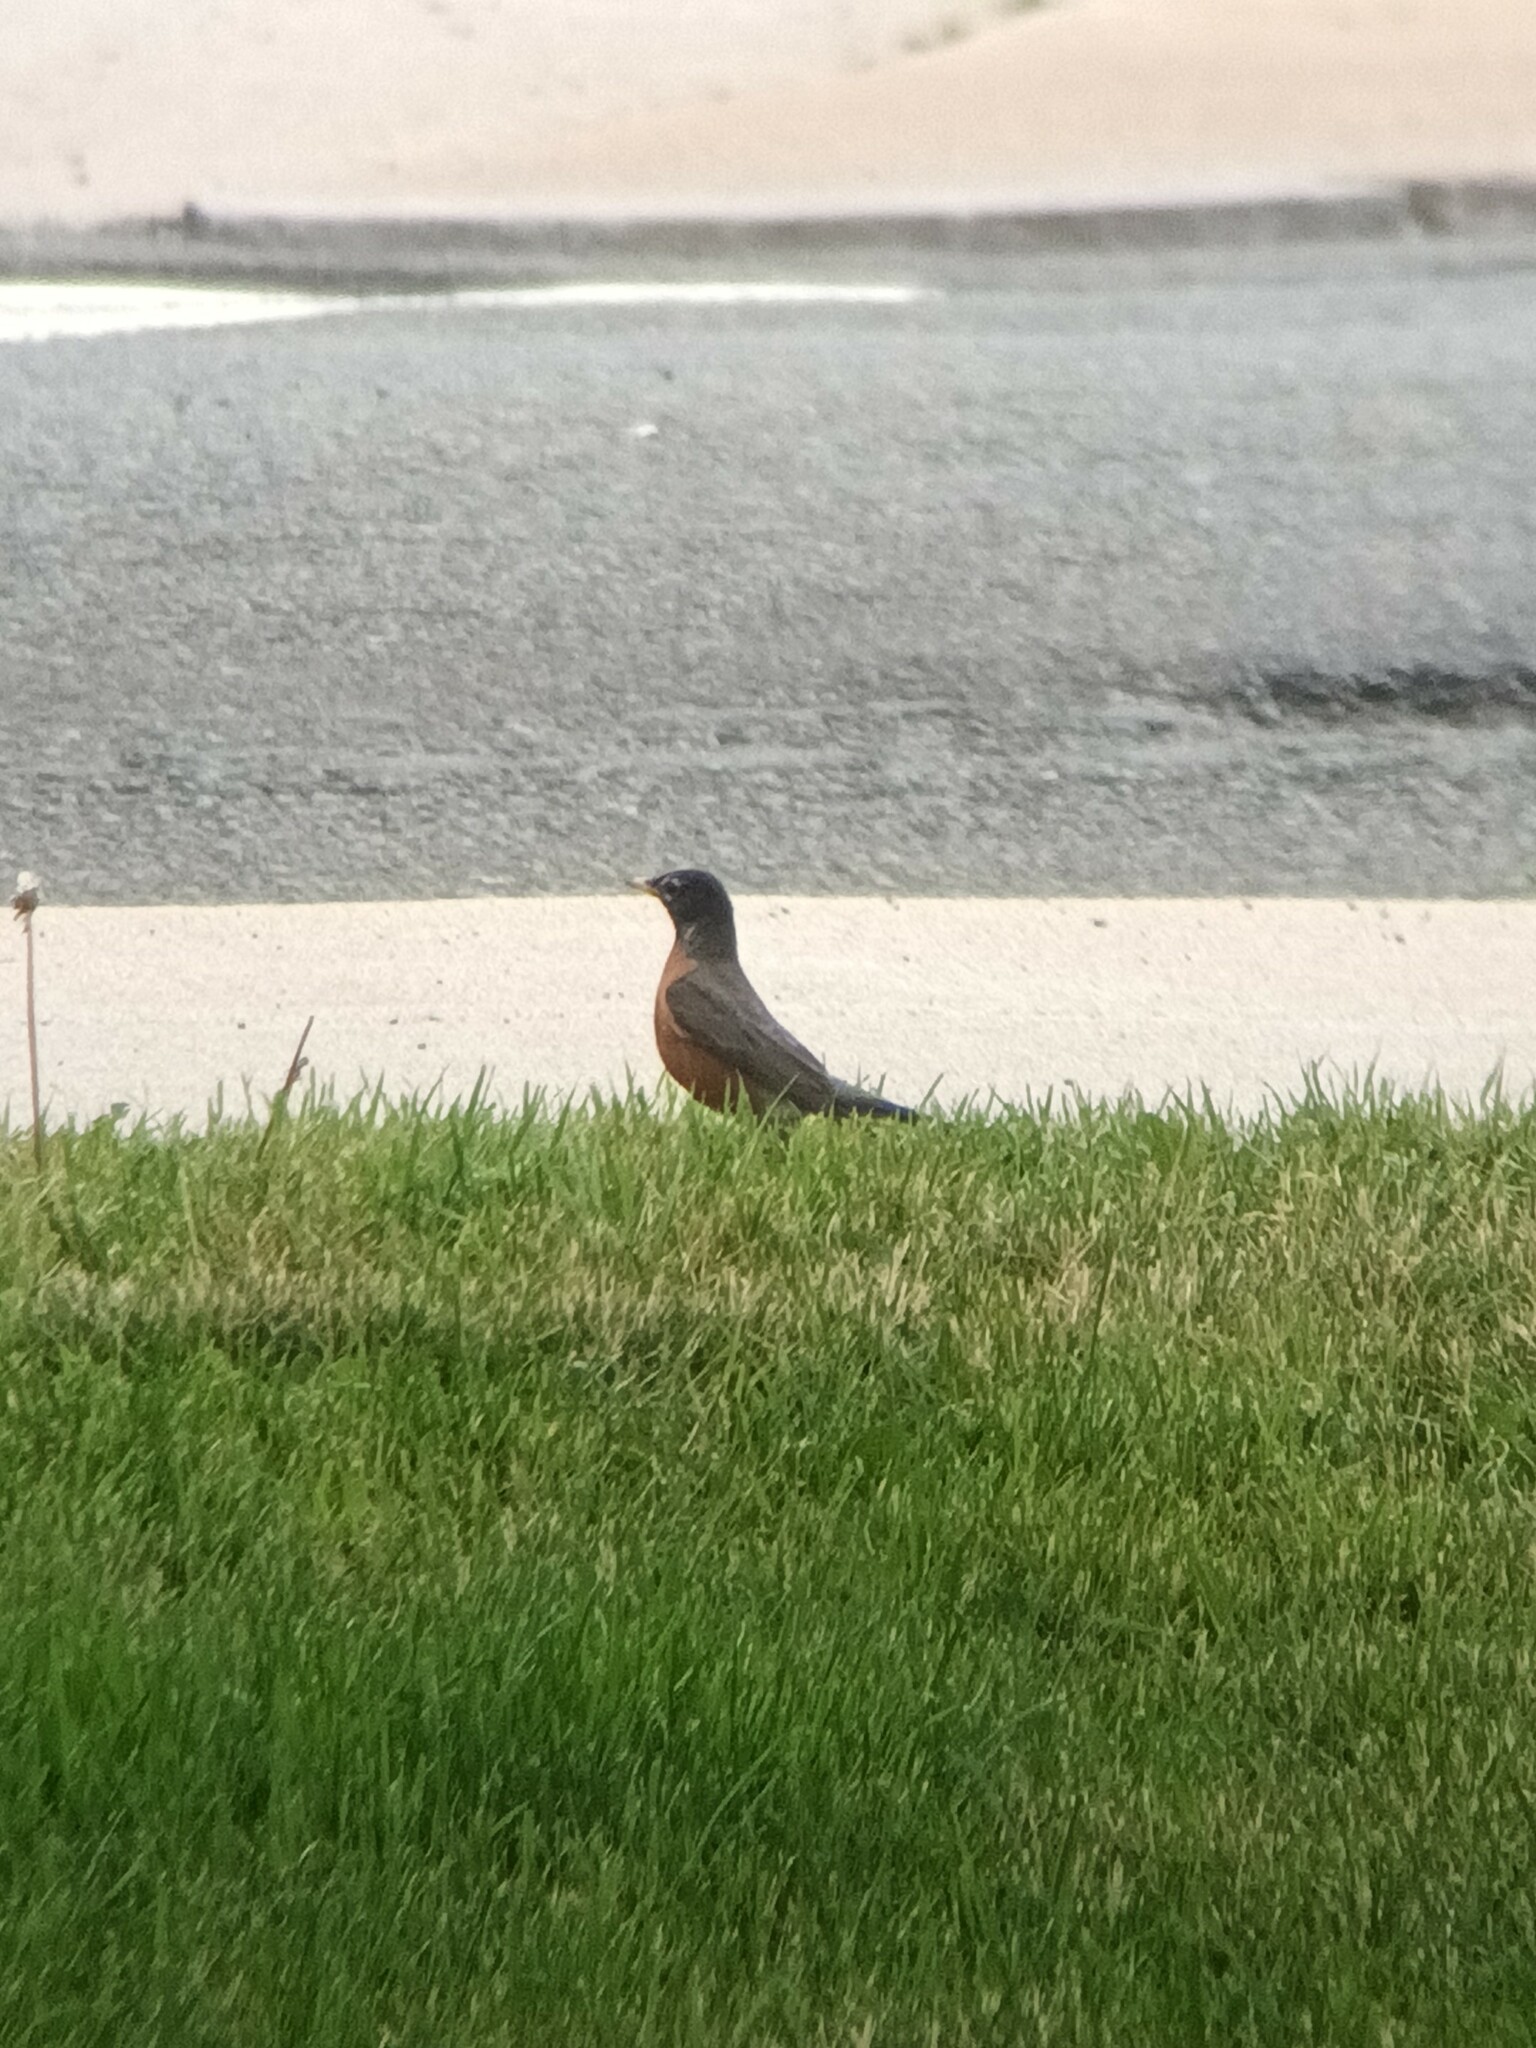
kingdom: Animalia
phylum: Chordata
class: Aves
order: Passeriformes
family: Turdidae
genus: Turdus
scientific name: Turdus migratorius
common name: American robin
